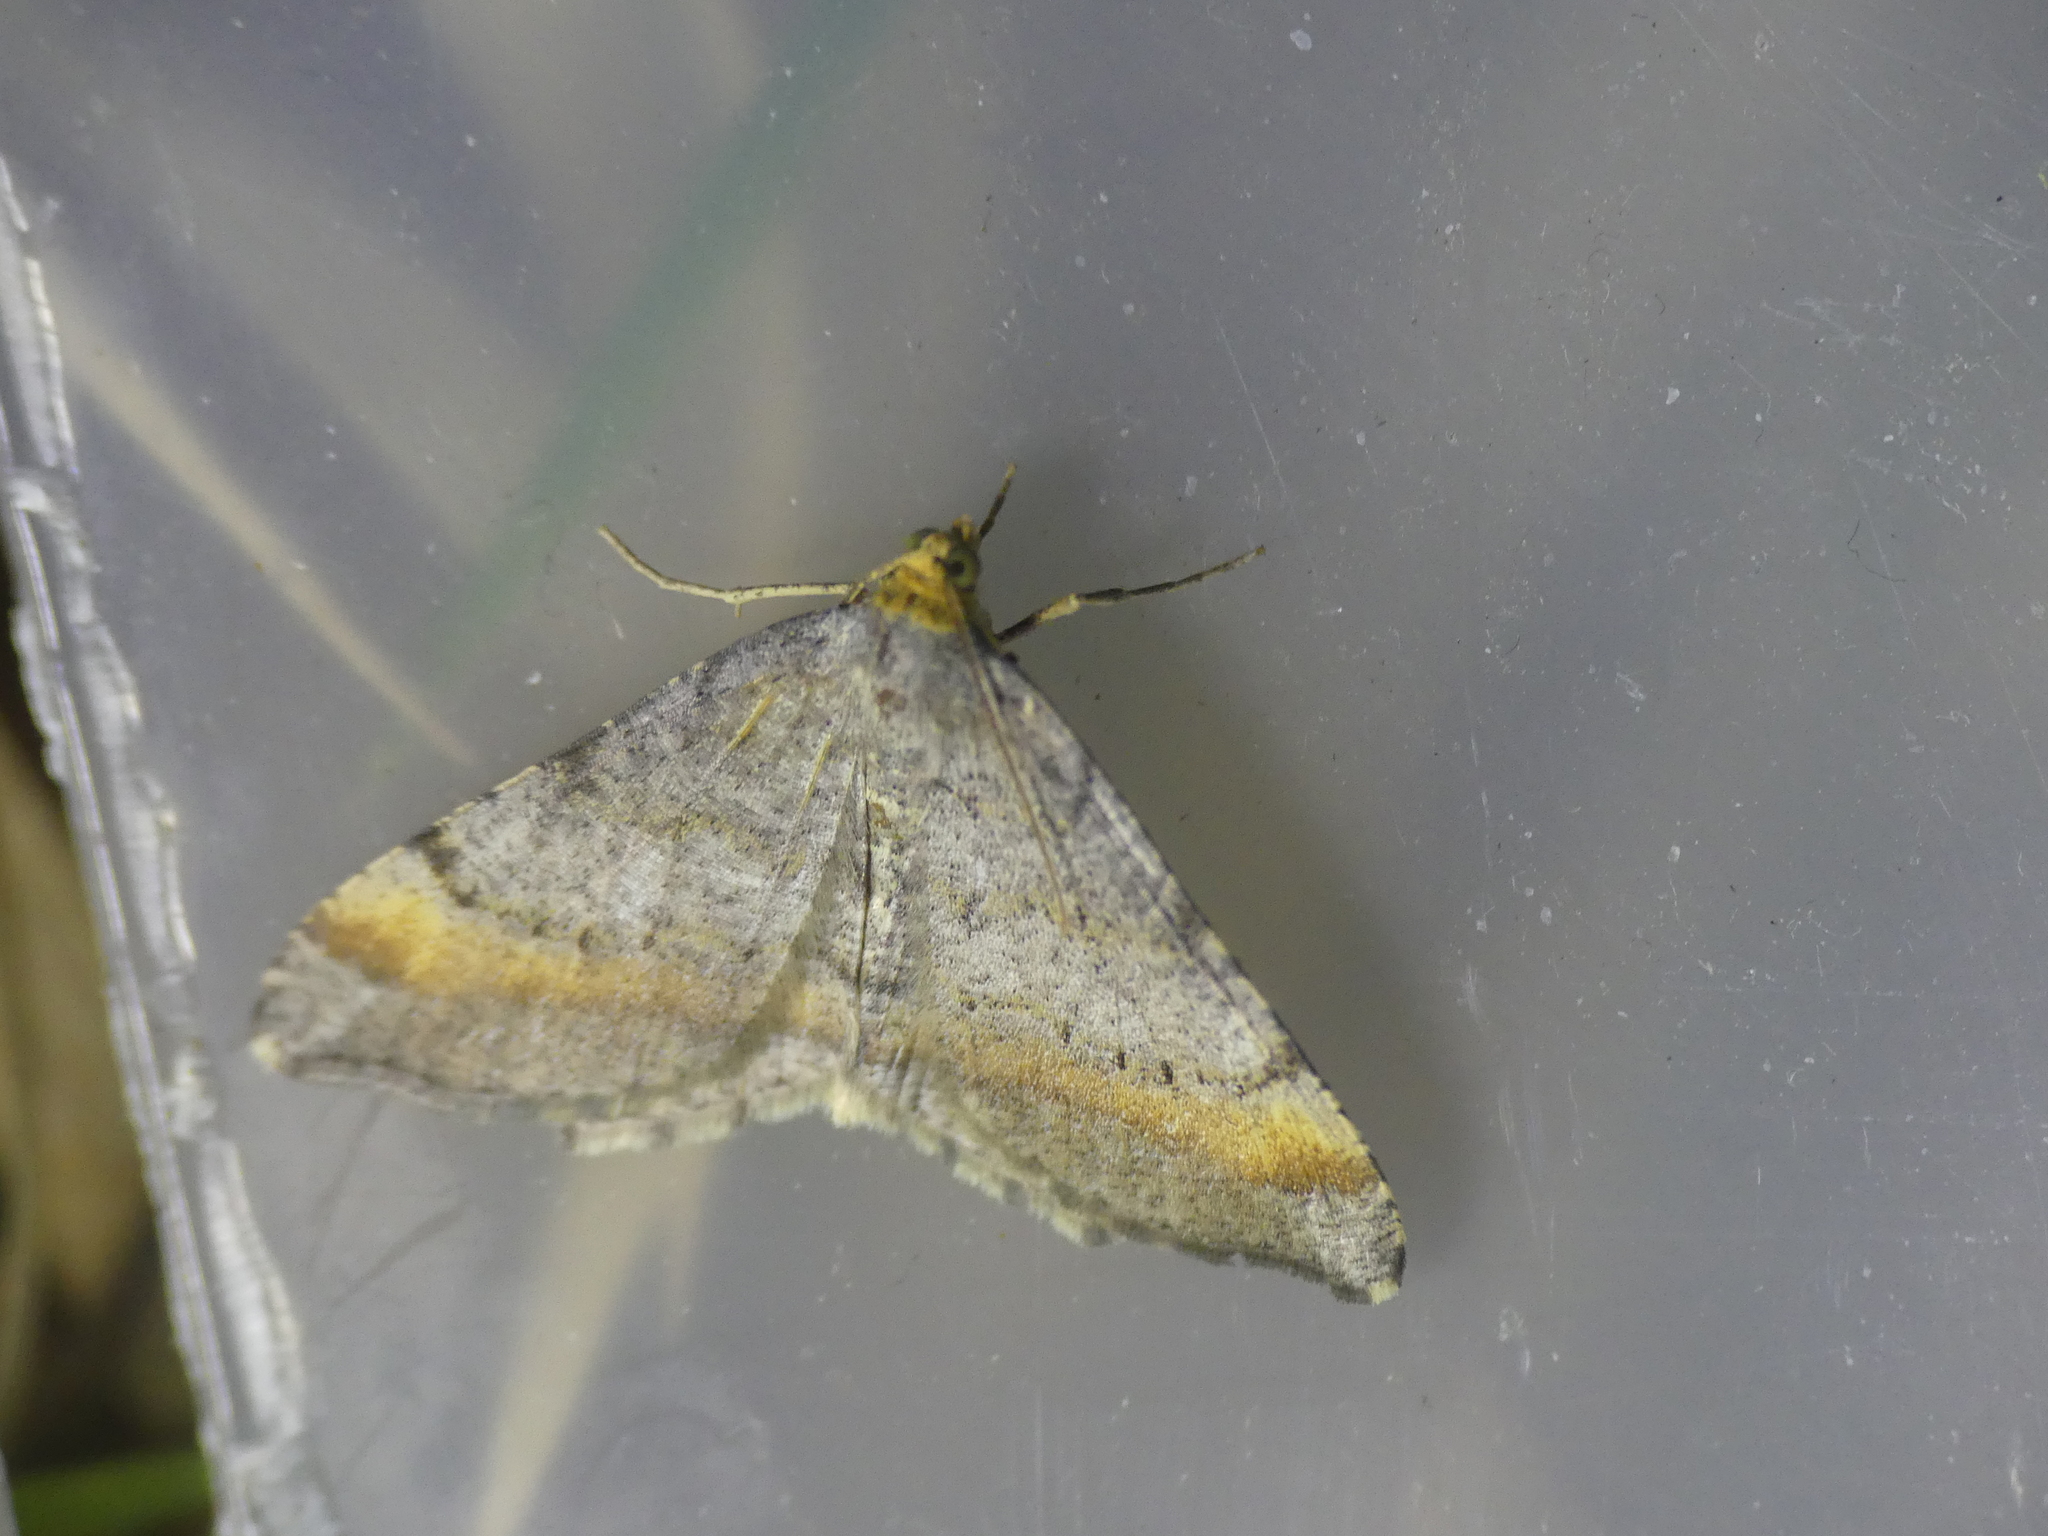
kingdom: Animalia
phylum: Arthropoda
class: Insecta
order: Lepidoptera
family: Geometridae
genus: Macaria
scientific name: Macaria liturata
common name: Tawny-barred angle
